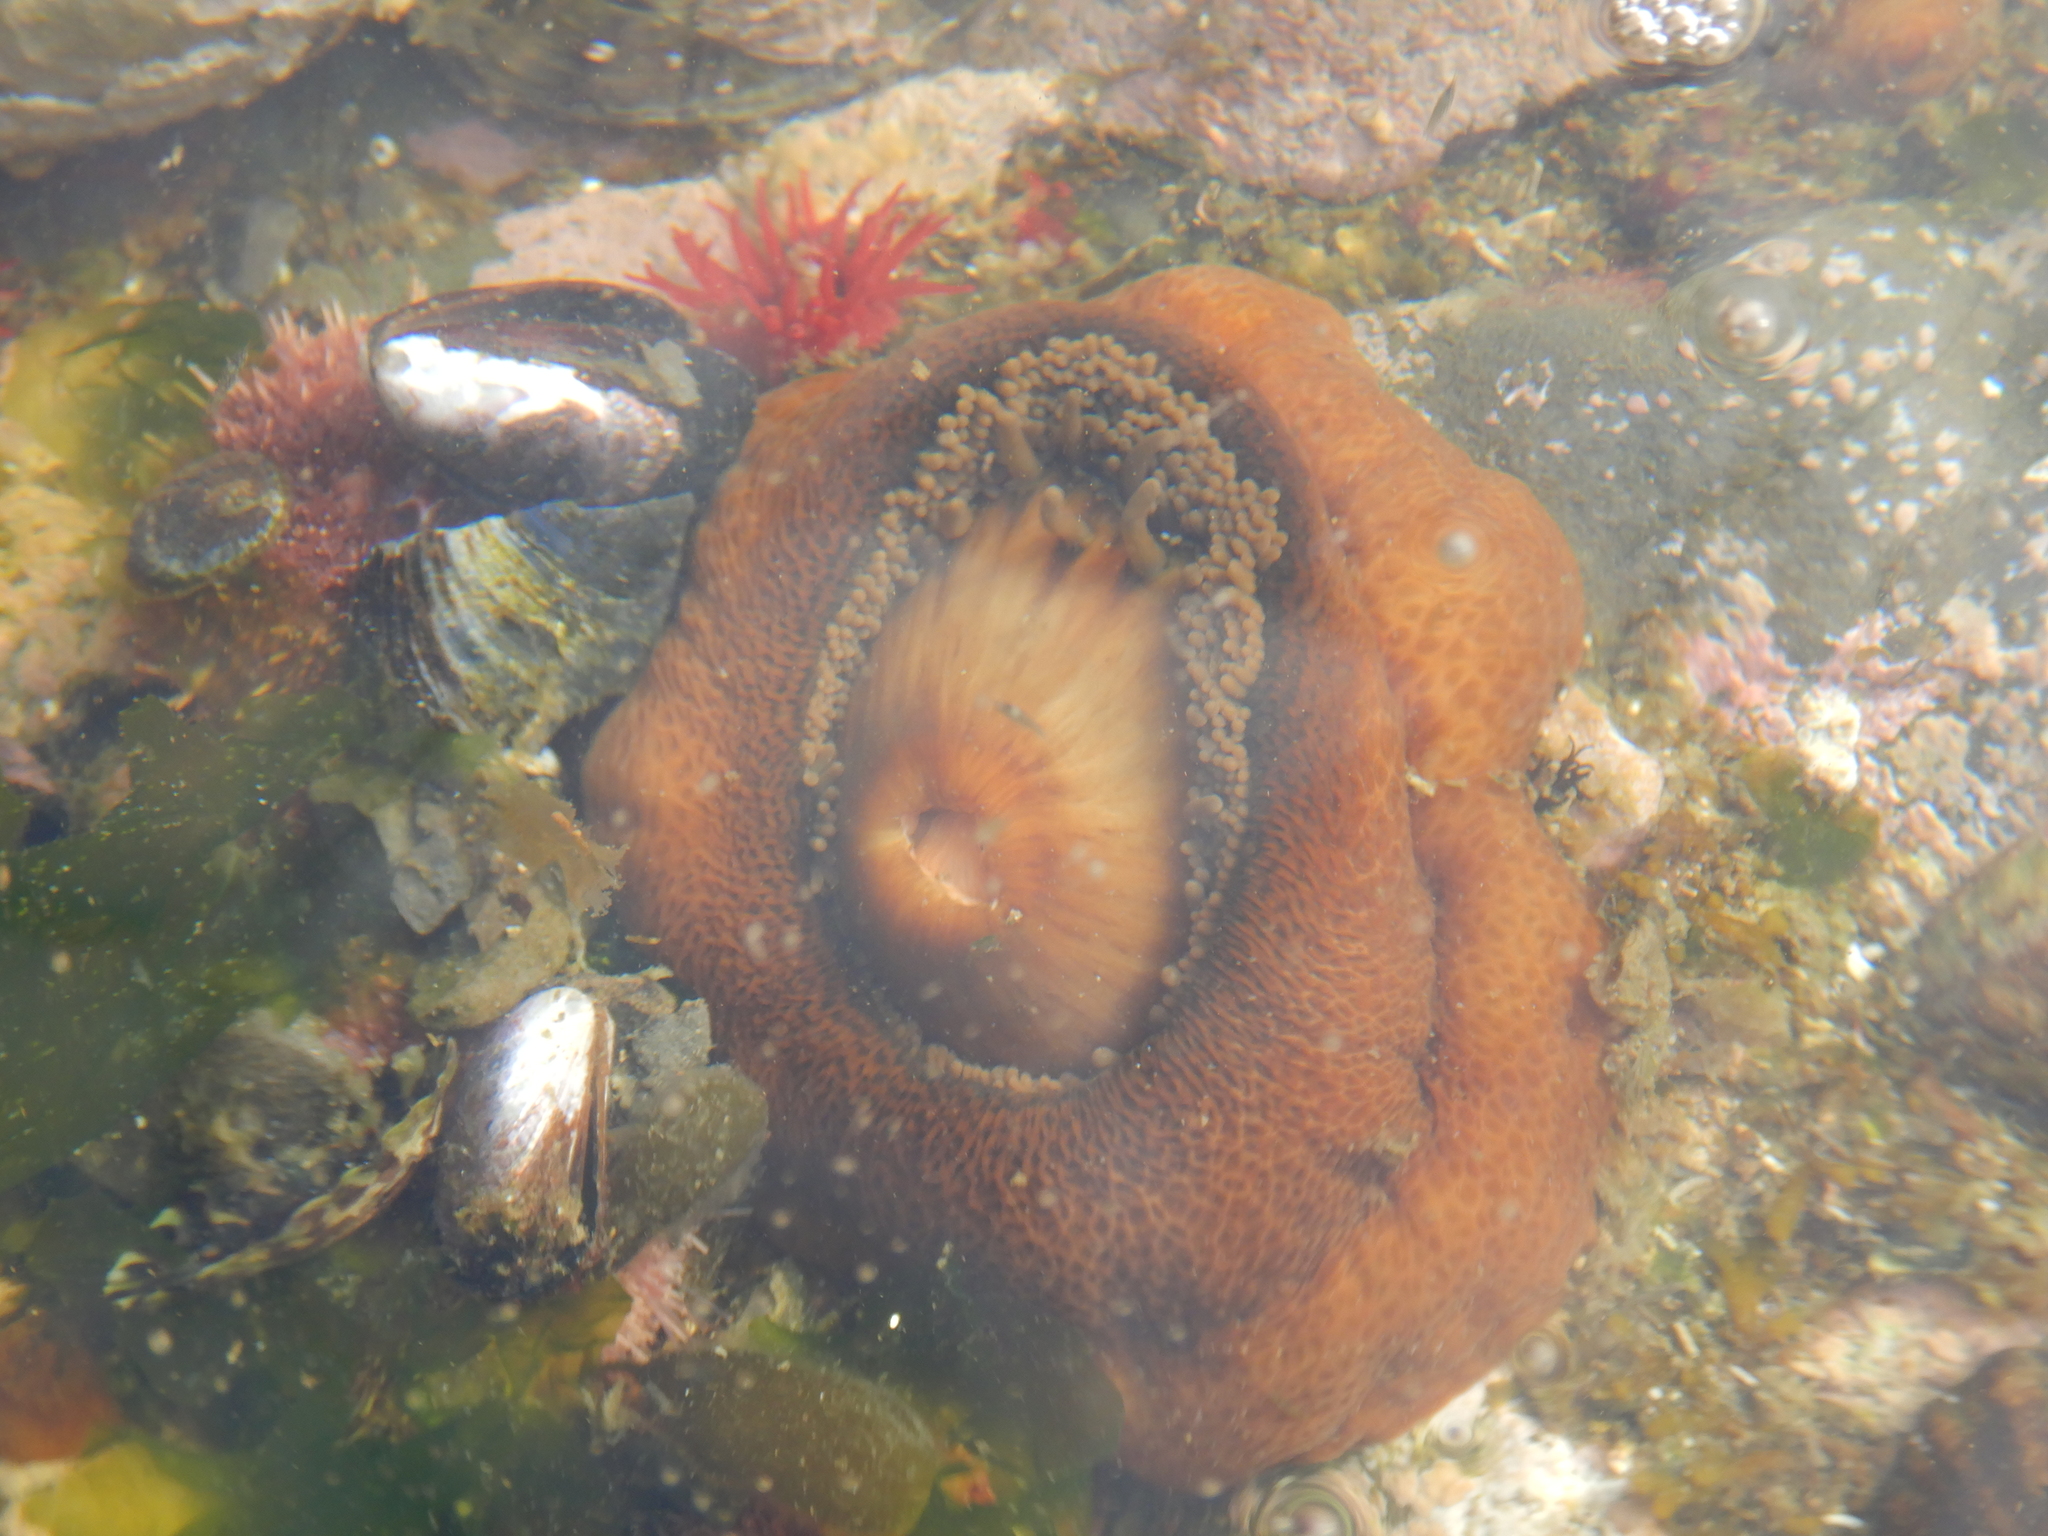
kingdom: Animalia
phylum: Cnidaria
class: Anthozoa
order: Actiniaria
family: Actinostolidae
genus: Antholoba
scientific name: Antholoba achates
